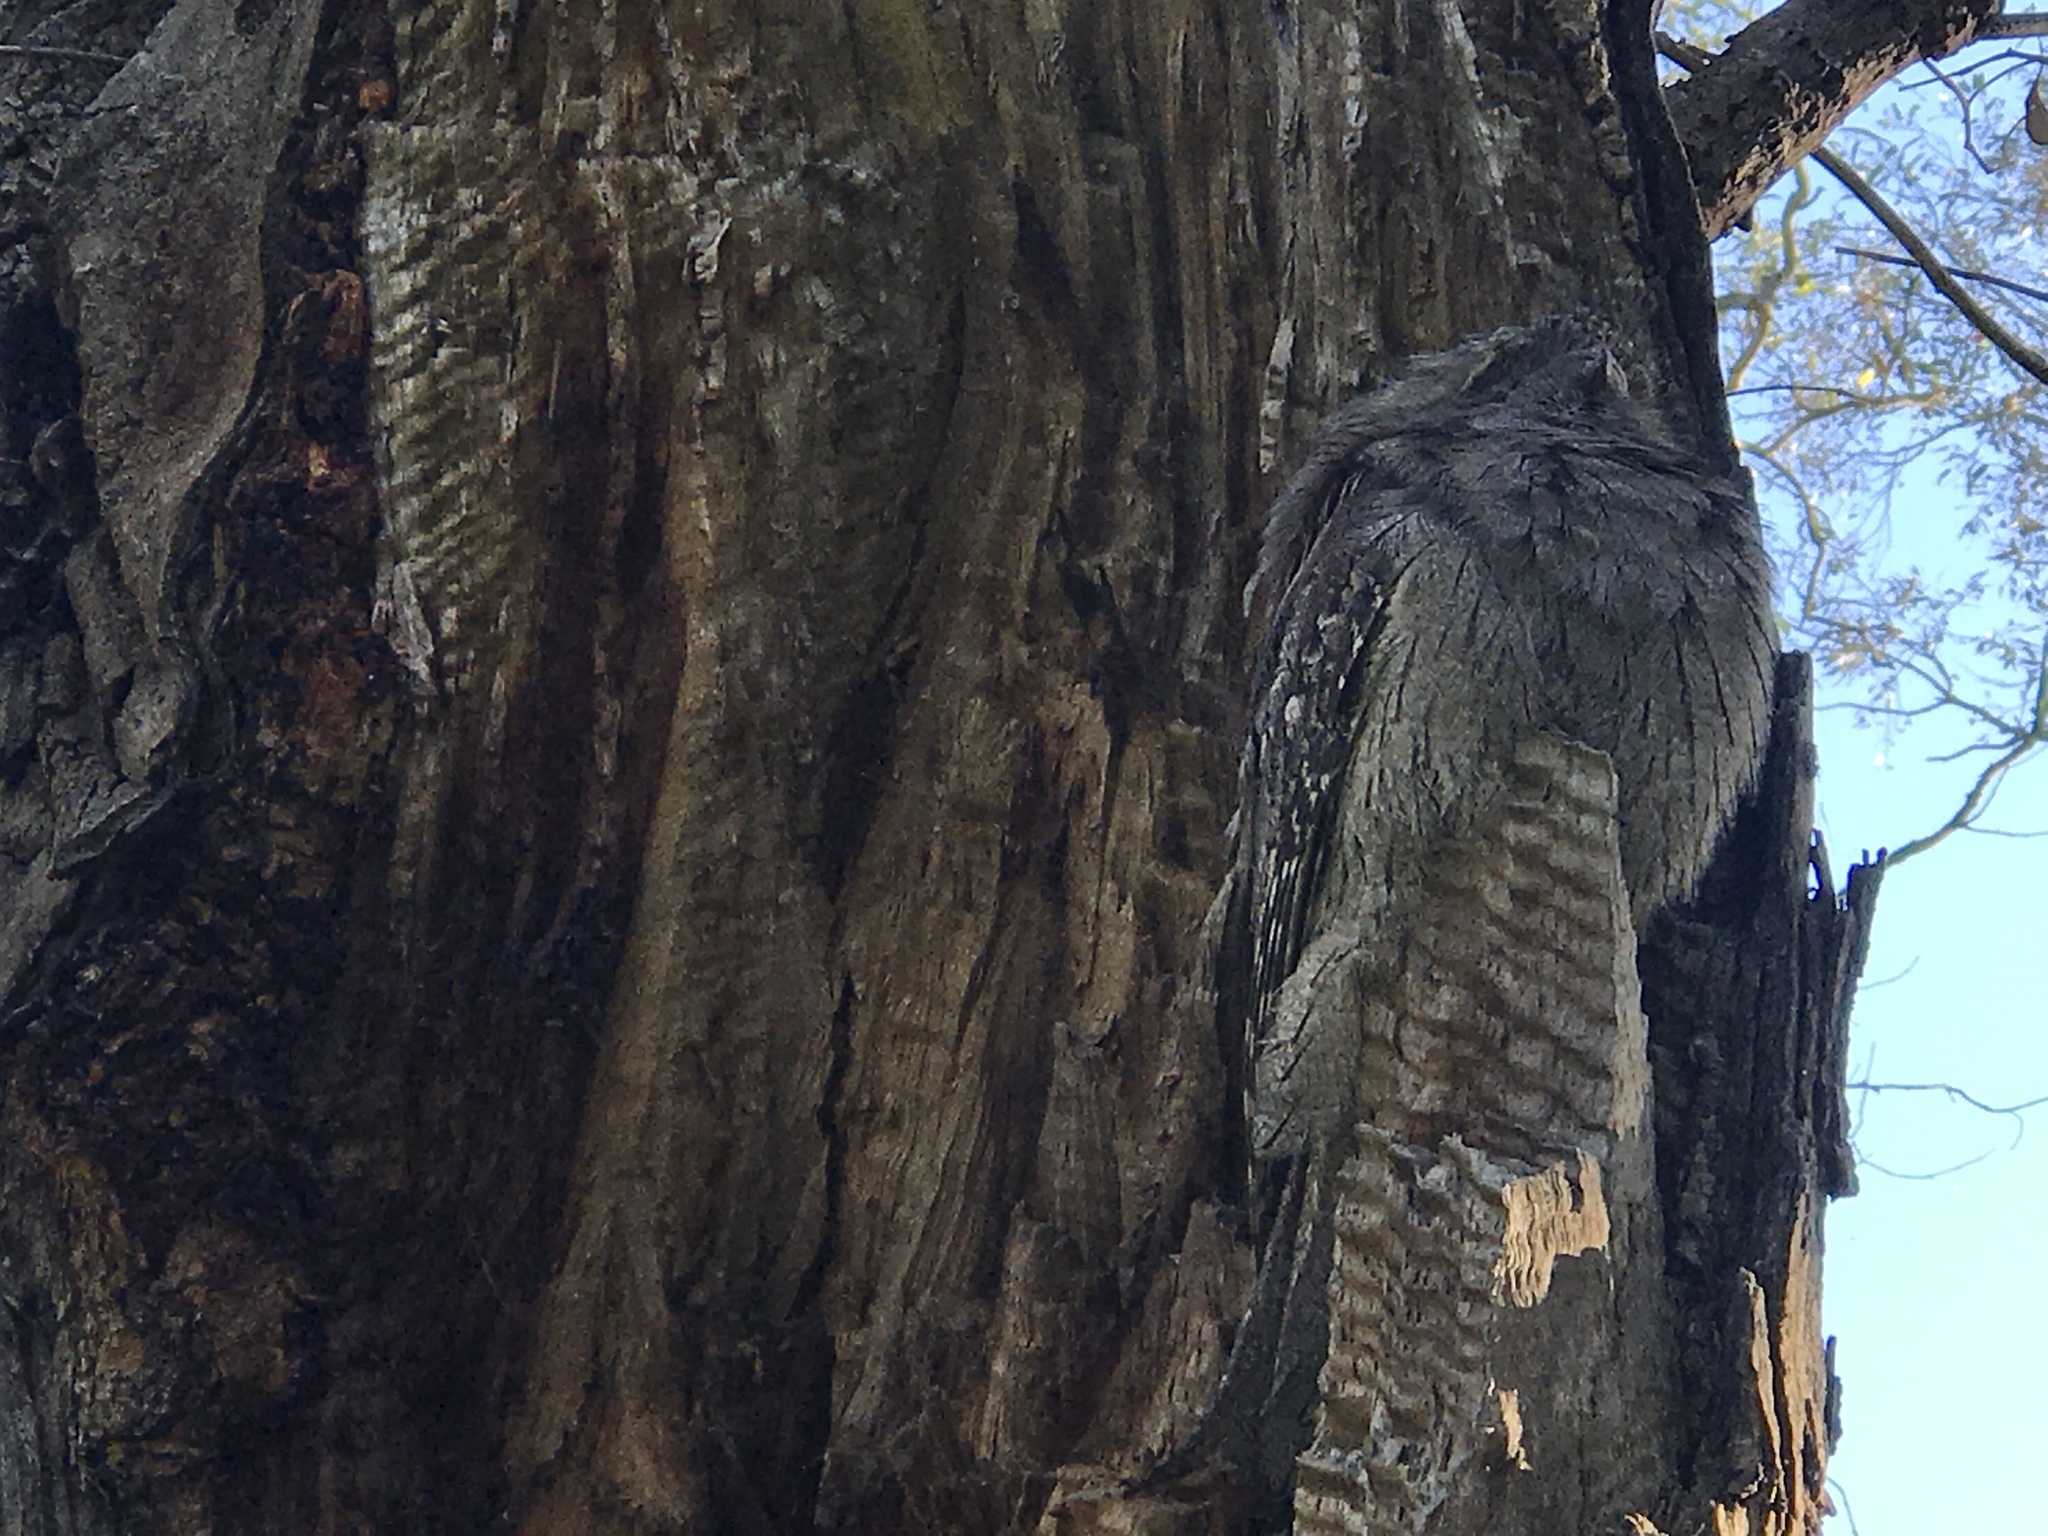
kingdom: Animalia
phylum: Chordata
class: Aves
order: Caprimulgiformes
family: Podargidae
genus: Podargus
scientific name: Podargus strigoides
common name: Tawny frogmouth
